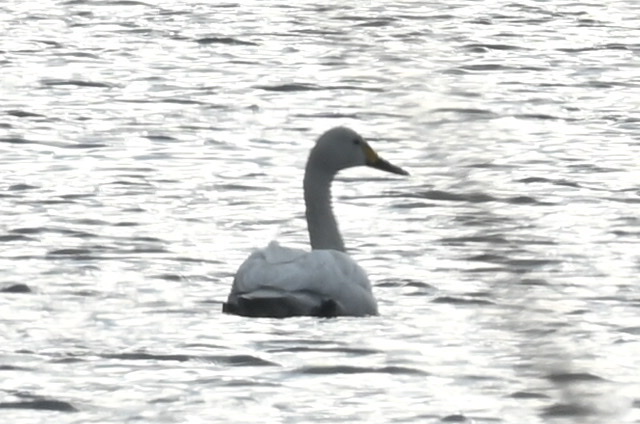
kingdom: Animalia
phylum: Chordata
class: Aves
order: Anseriformes
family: Anatidae
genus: Cygnus
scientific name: Cygnus columbianus
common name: Tundra swan
